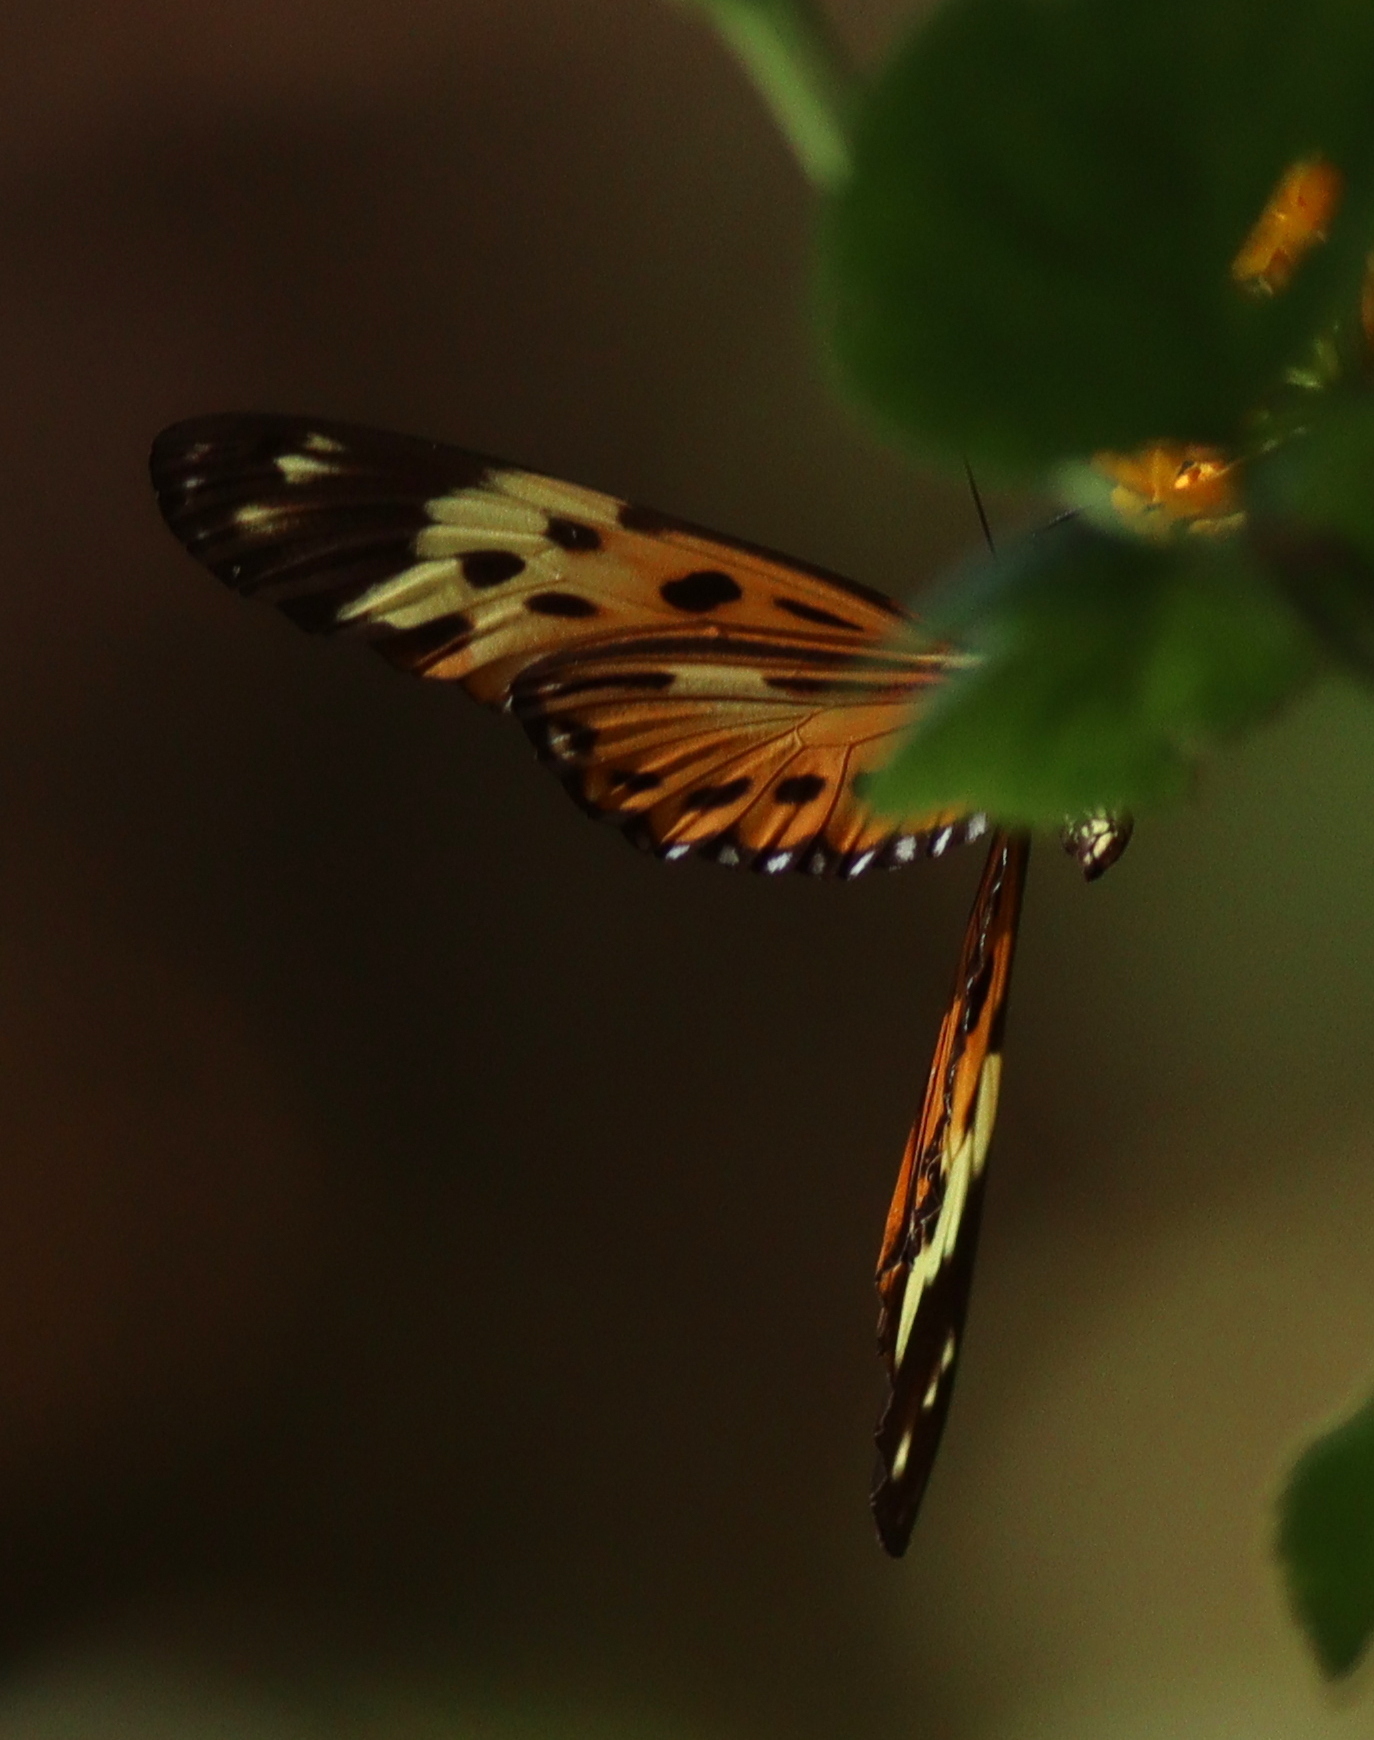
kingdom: Animalia
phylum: Arthropoda
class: Insecta
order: Lepidoptera
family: Nymphalidae
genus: Heliconius
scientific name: Heliconius numatus
